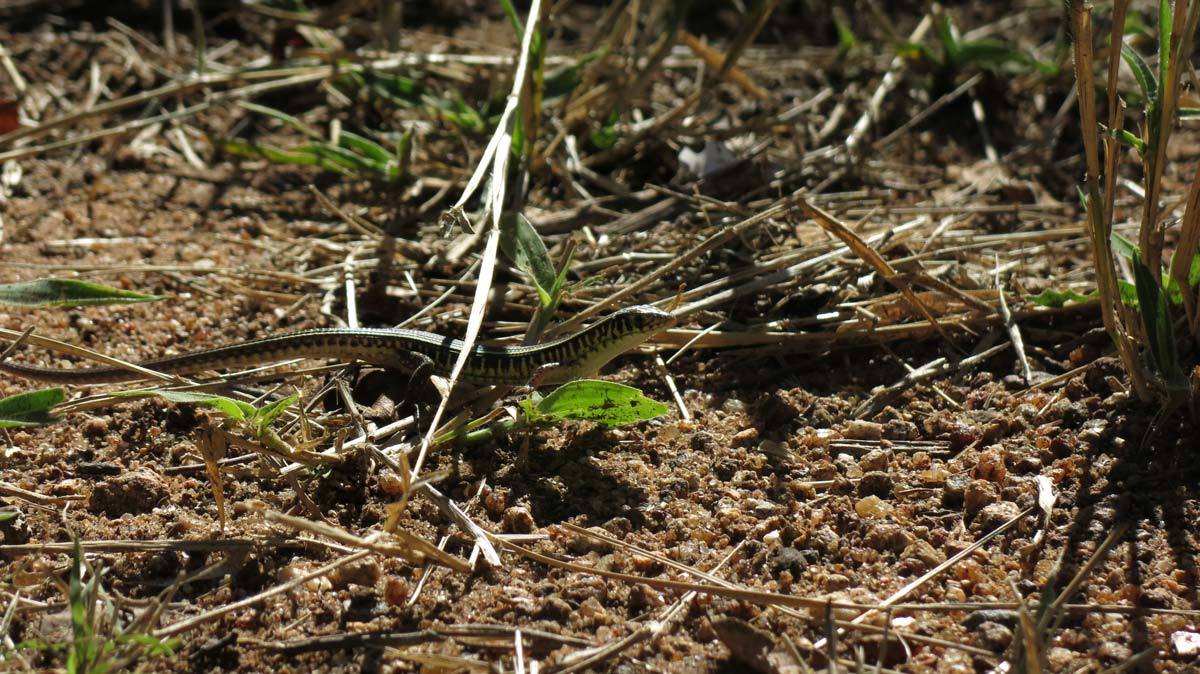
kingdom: Animalia
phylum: Chordata
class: Squamata
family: Gerrhosauridae
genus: Gerrhosaurus
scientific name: Gerrhosaurus flavigularis
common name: Yellow-throated plated lizard
